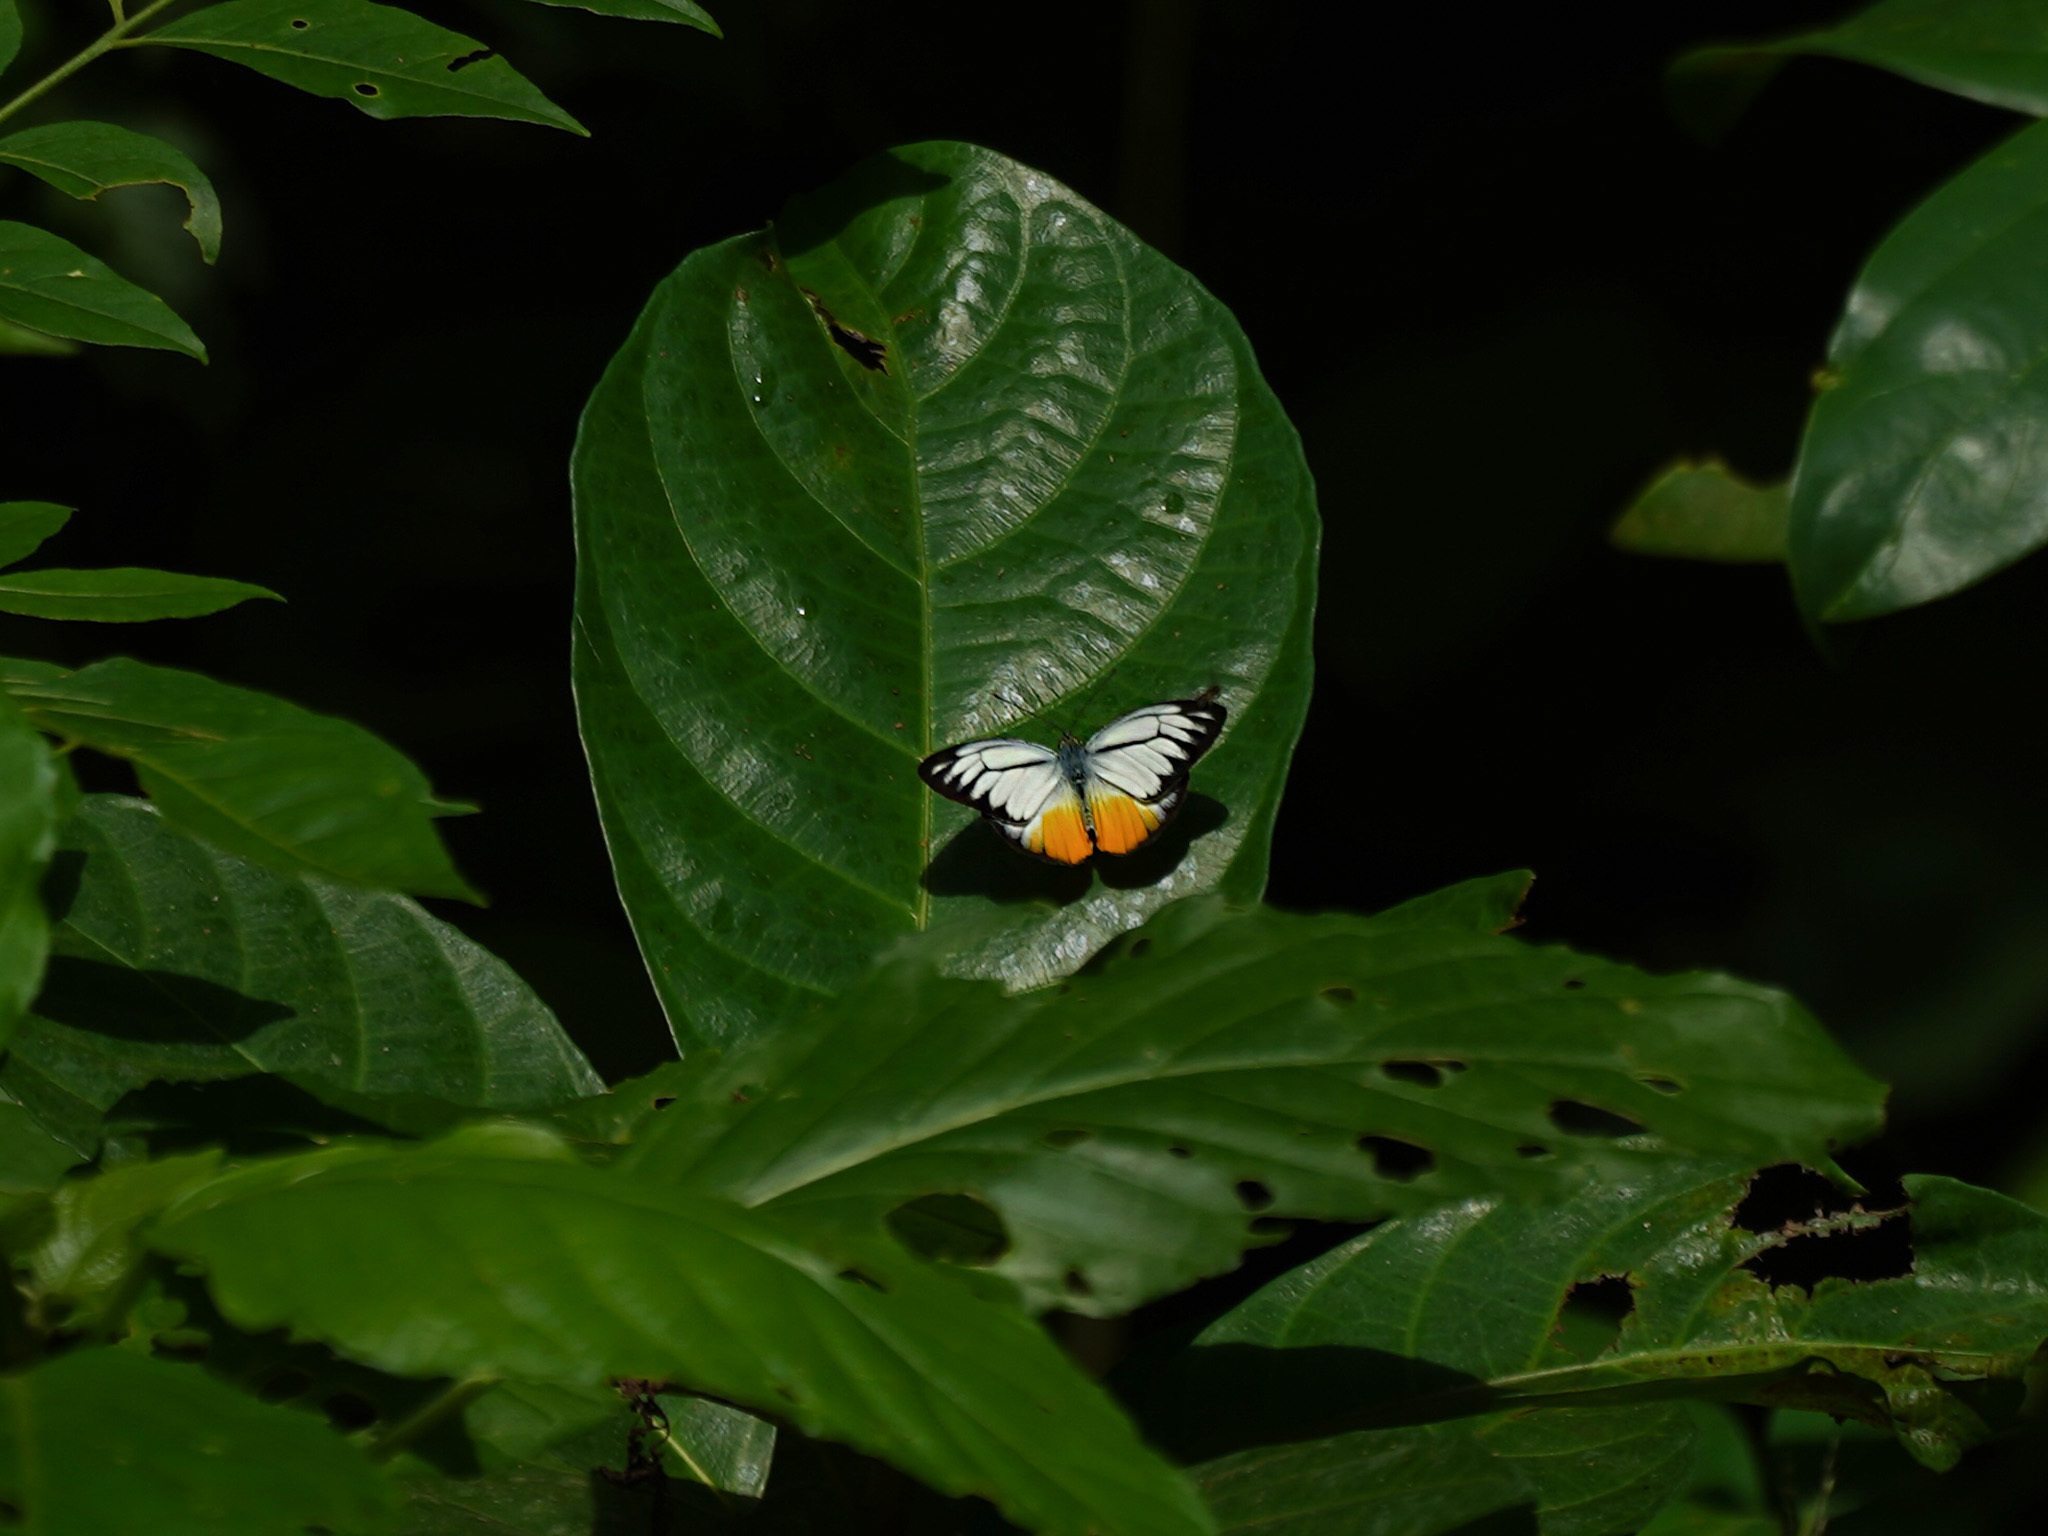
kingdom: Animalia
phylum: Arthropoda
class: Insecta
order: Lepidoptera
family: Pieridae
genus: Cepora
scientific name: Cepora iudith
